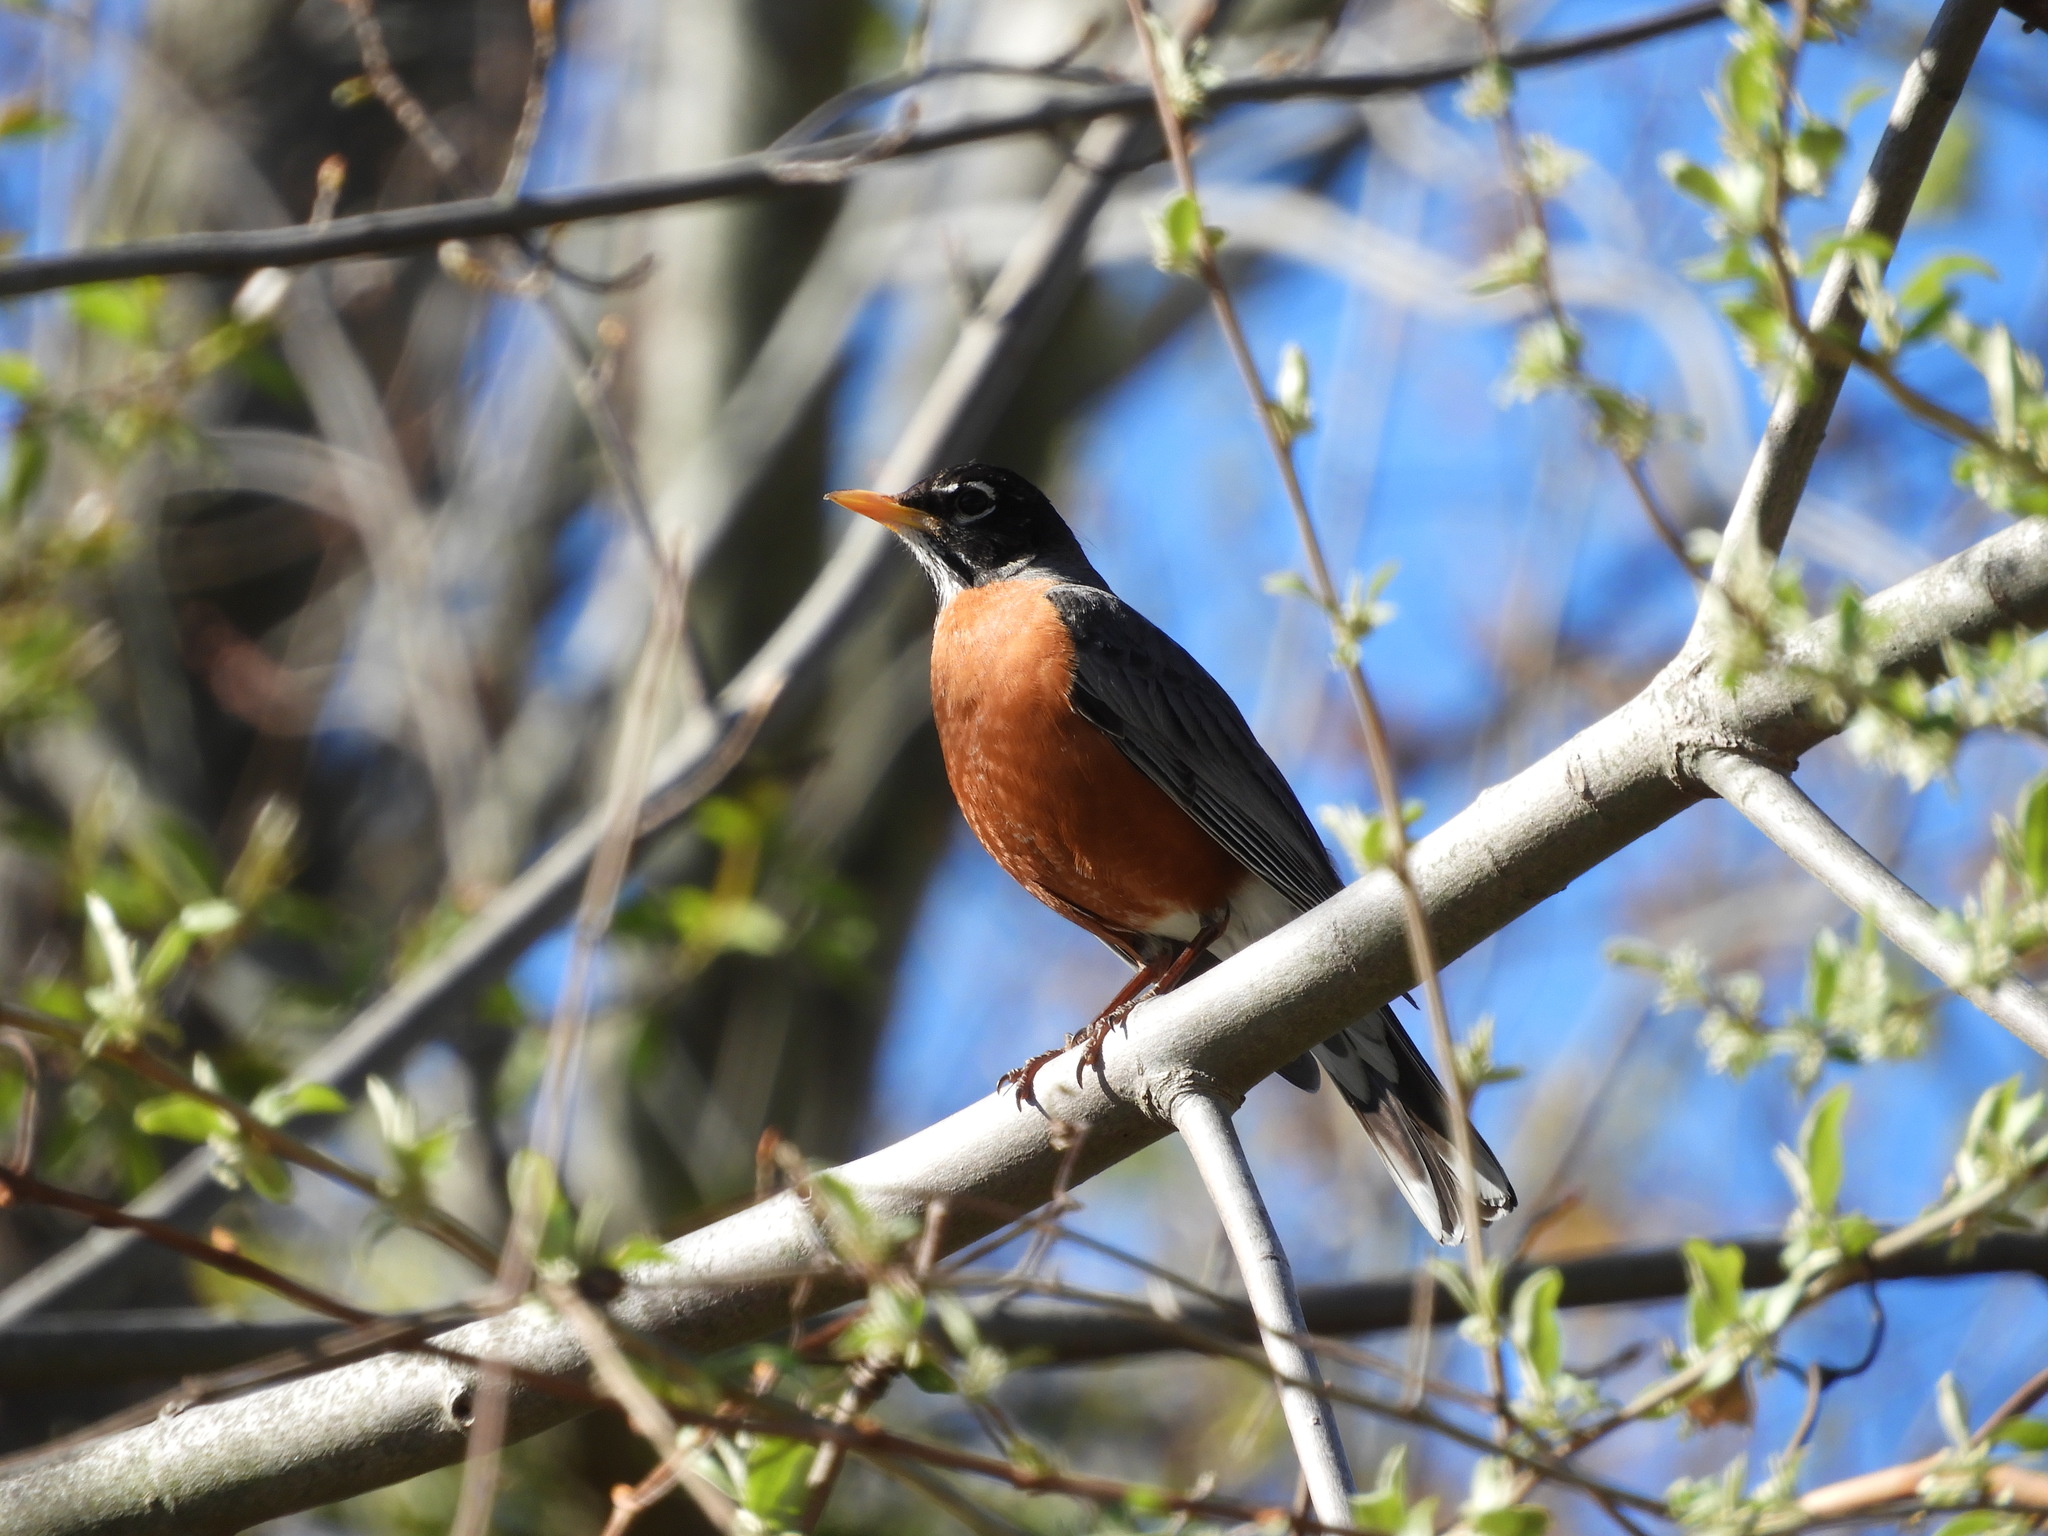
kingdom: Animalia
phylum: Chordata
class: Aves
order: Passeriformes
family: Turdidae
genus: Turdus
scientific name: Turdus migratorius
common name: American robin
